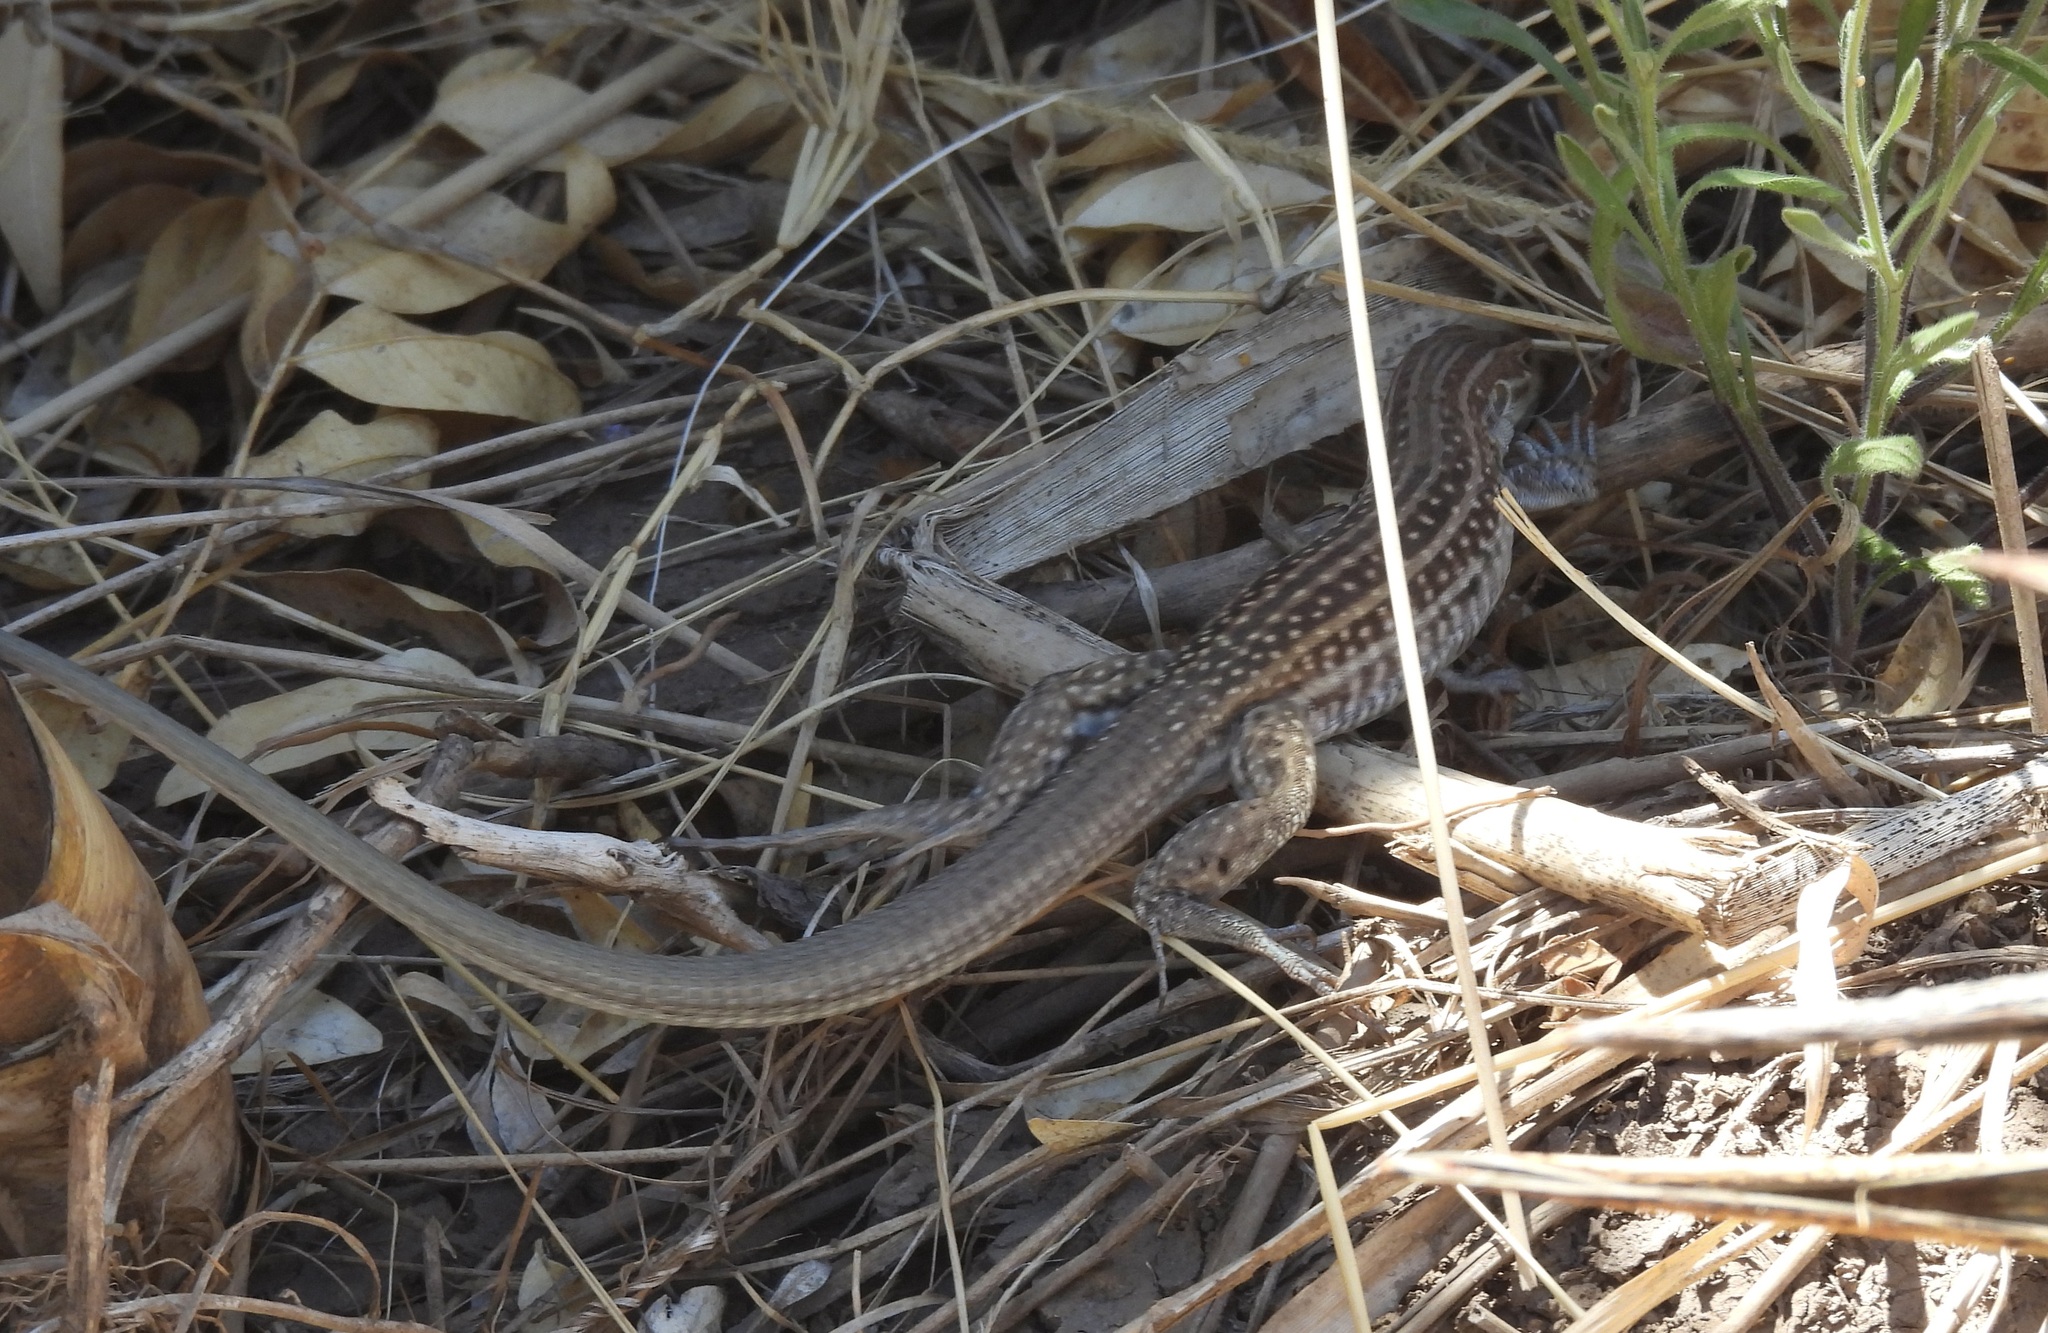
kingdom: Animalia
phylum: Chordata
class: Squamata
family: Teiidae
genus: Aspidoscelis
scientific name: Aspidoscelis exsanguis
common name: Chihuahuan spotted whiptail
